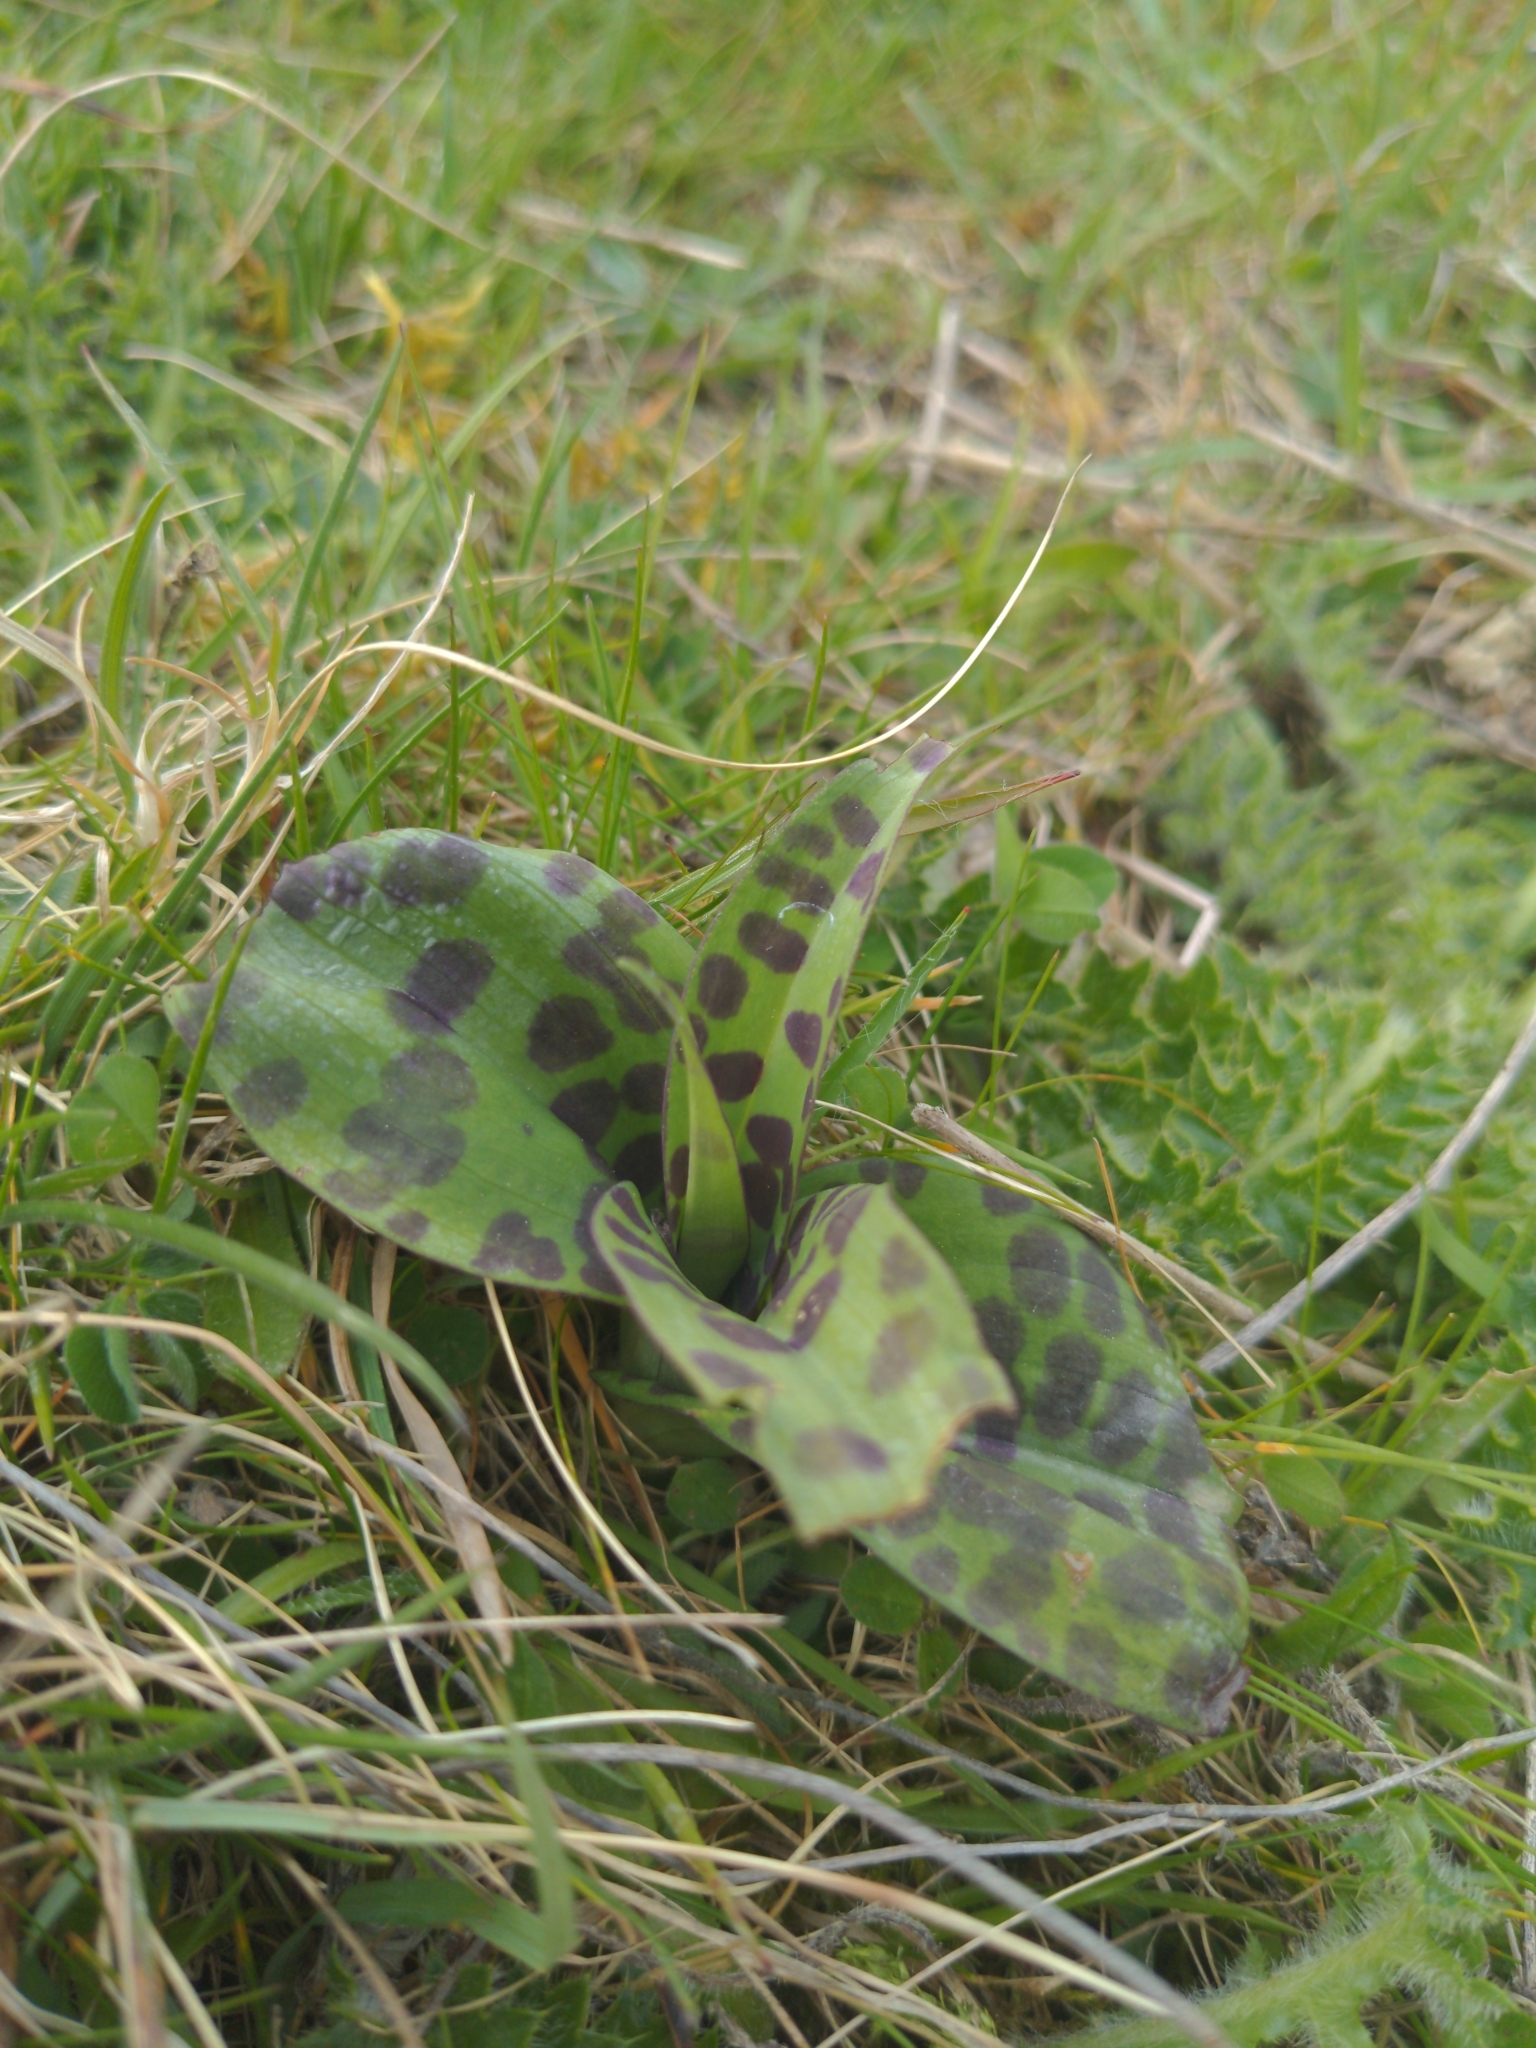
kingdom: Plantae
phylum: Tracheophyta
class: Liliopsida
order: Asparagales
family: Orchidaceae
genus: Dactylorhiza
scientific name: Dactylorhiza maculata
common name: Heath spotted-orchid
